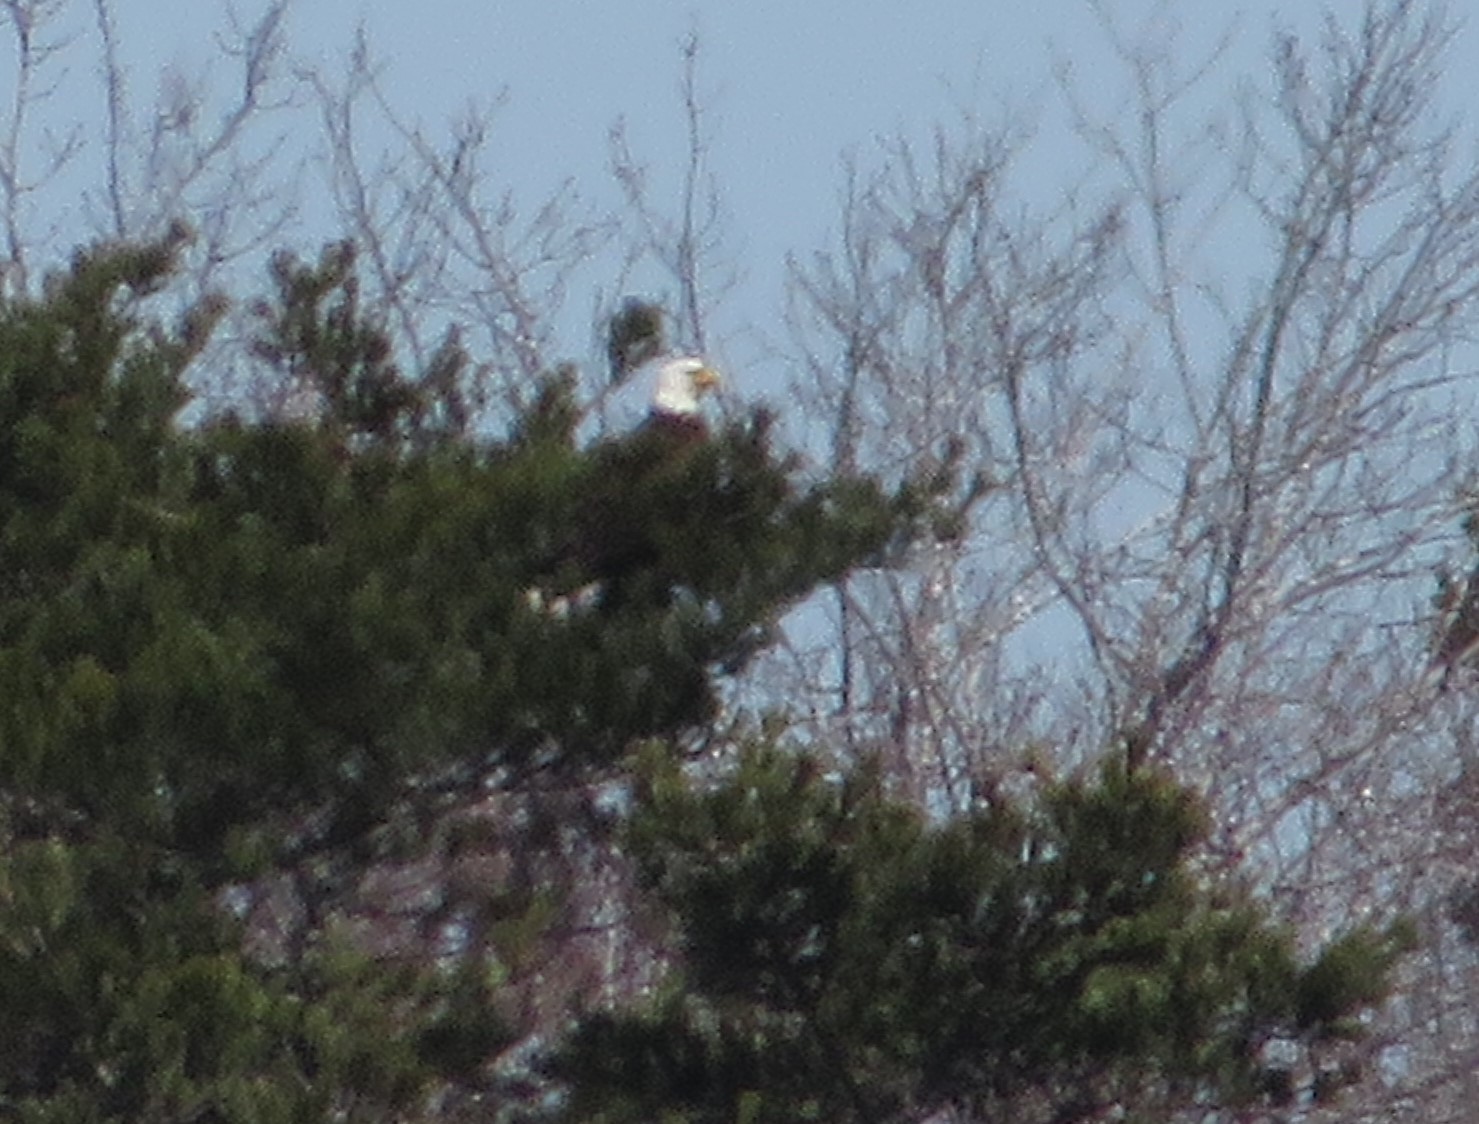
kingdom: Animalia
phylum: Chordata
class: Aves
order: Accipitriformes
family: Accipitridae
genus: Haliaeetus
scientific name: Haliaeetus leucocephalus
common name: Bald eagle
